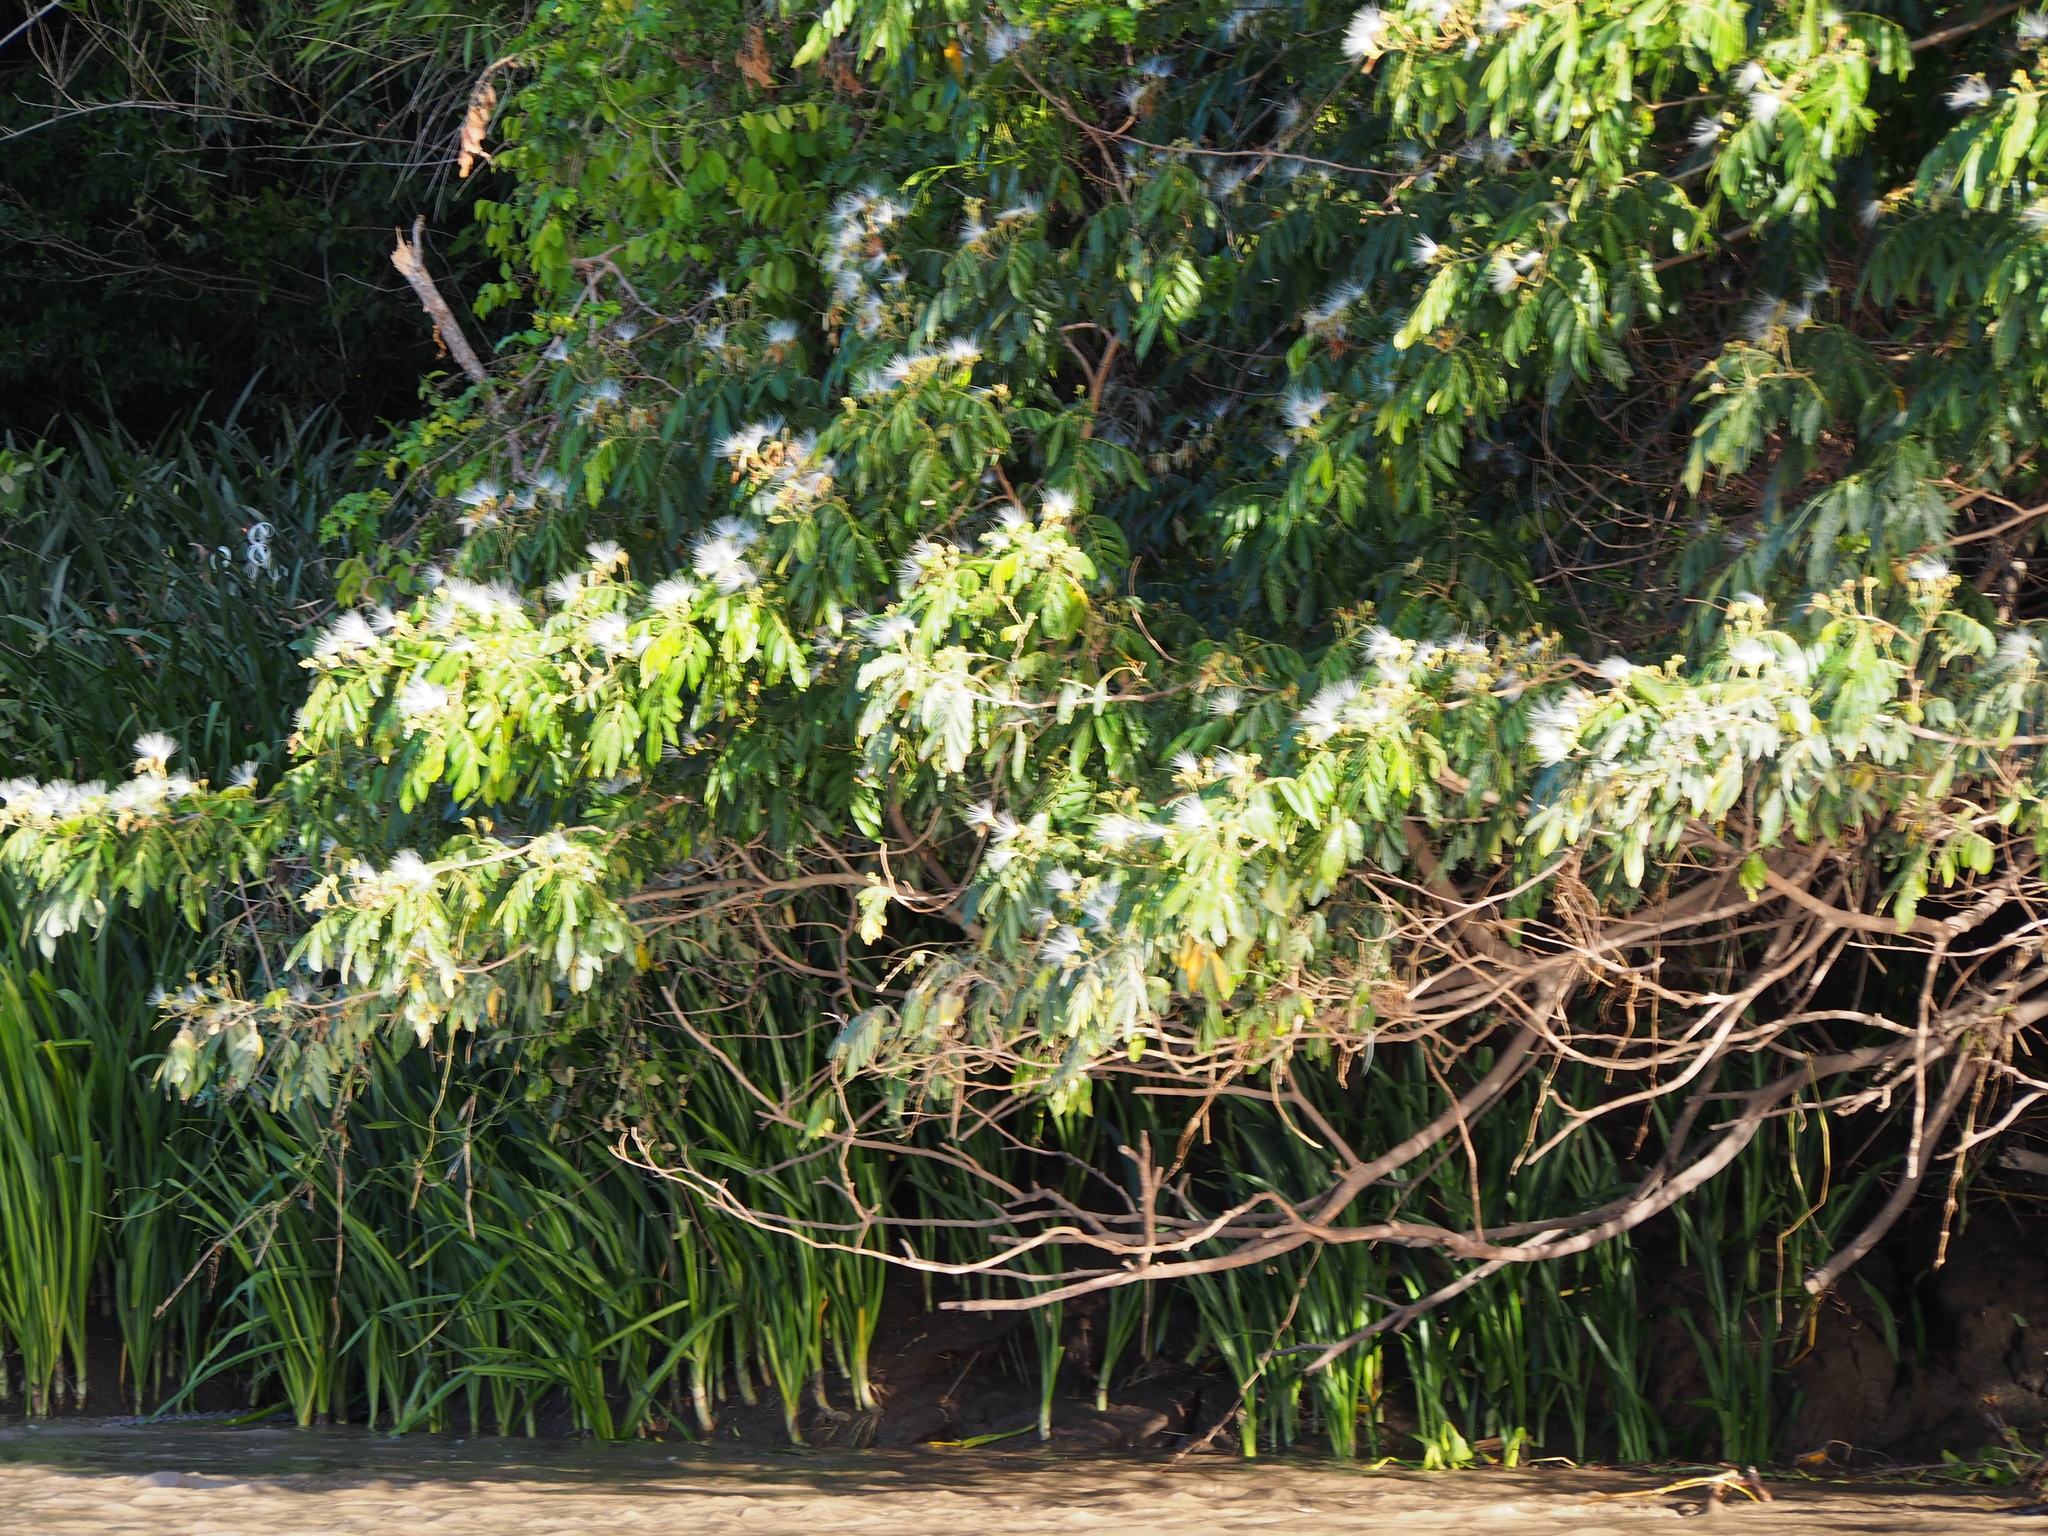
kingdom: Plantae
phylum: Tracheophyta
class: Magnoliopsida
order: Fabales
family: Fabaceae
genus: Inga
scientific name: Inga vera
